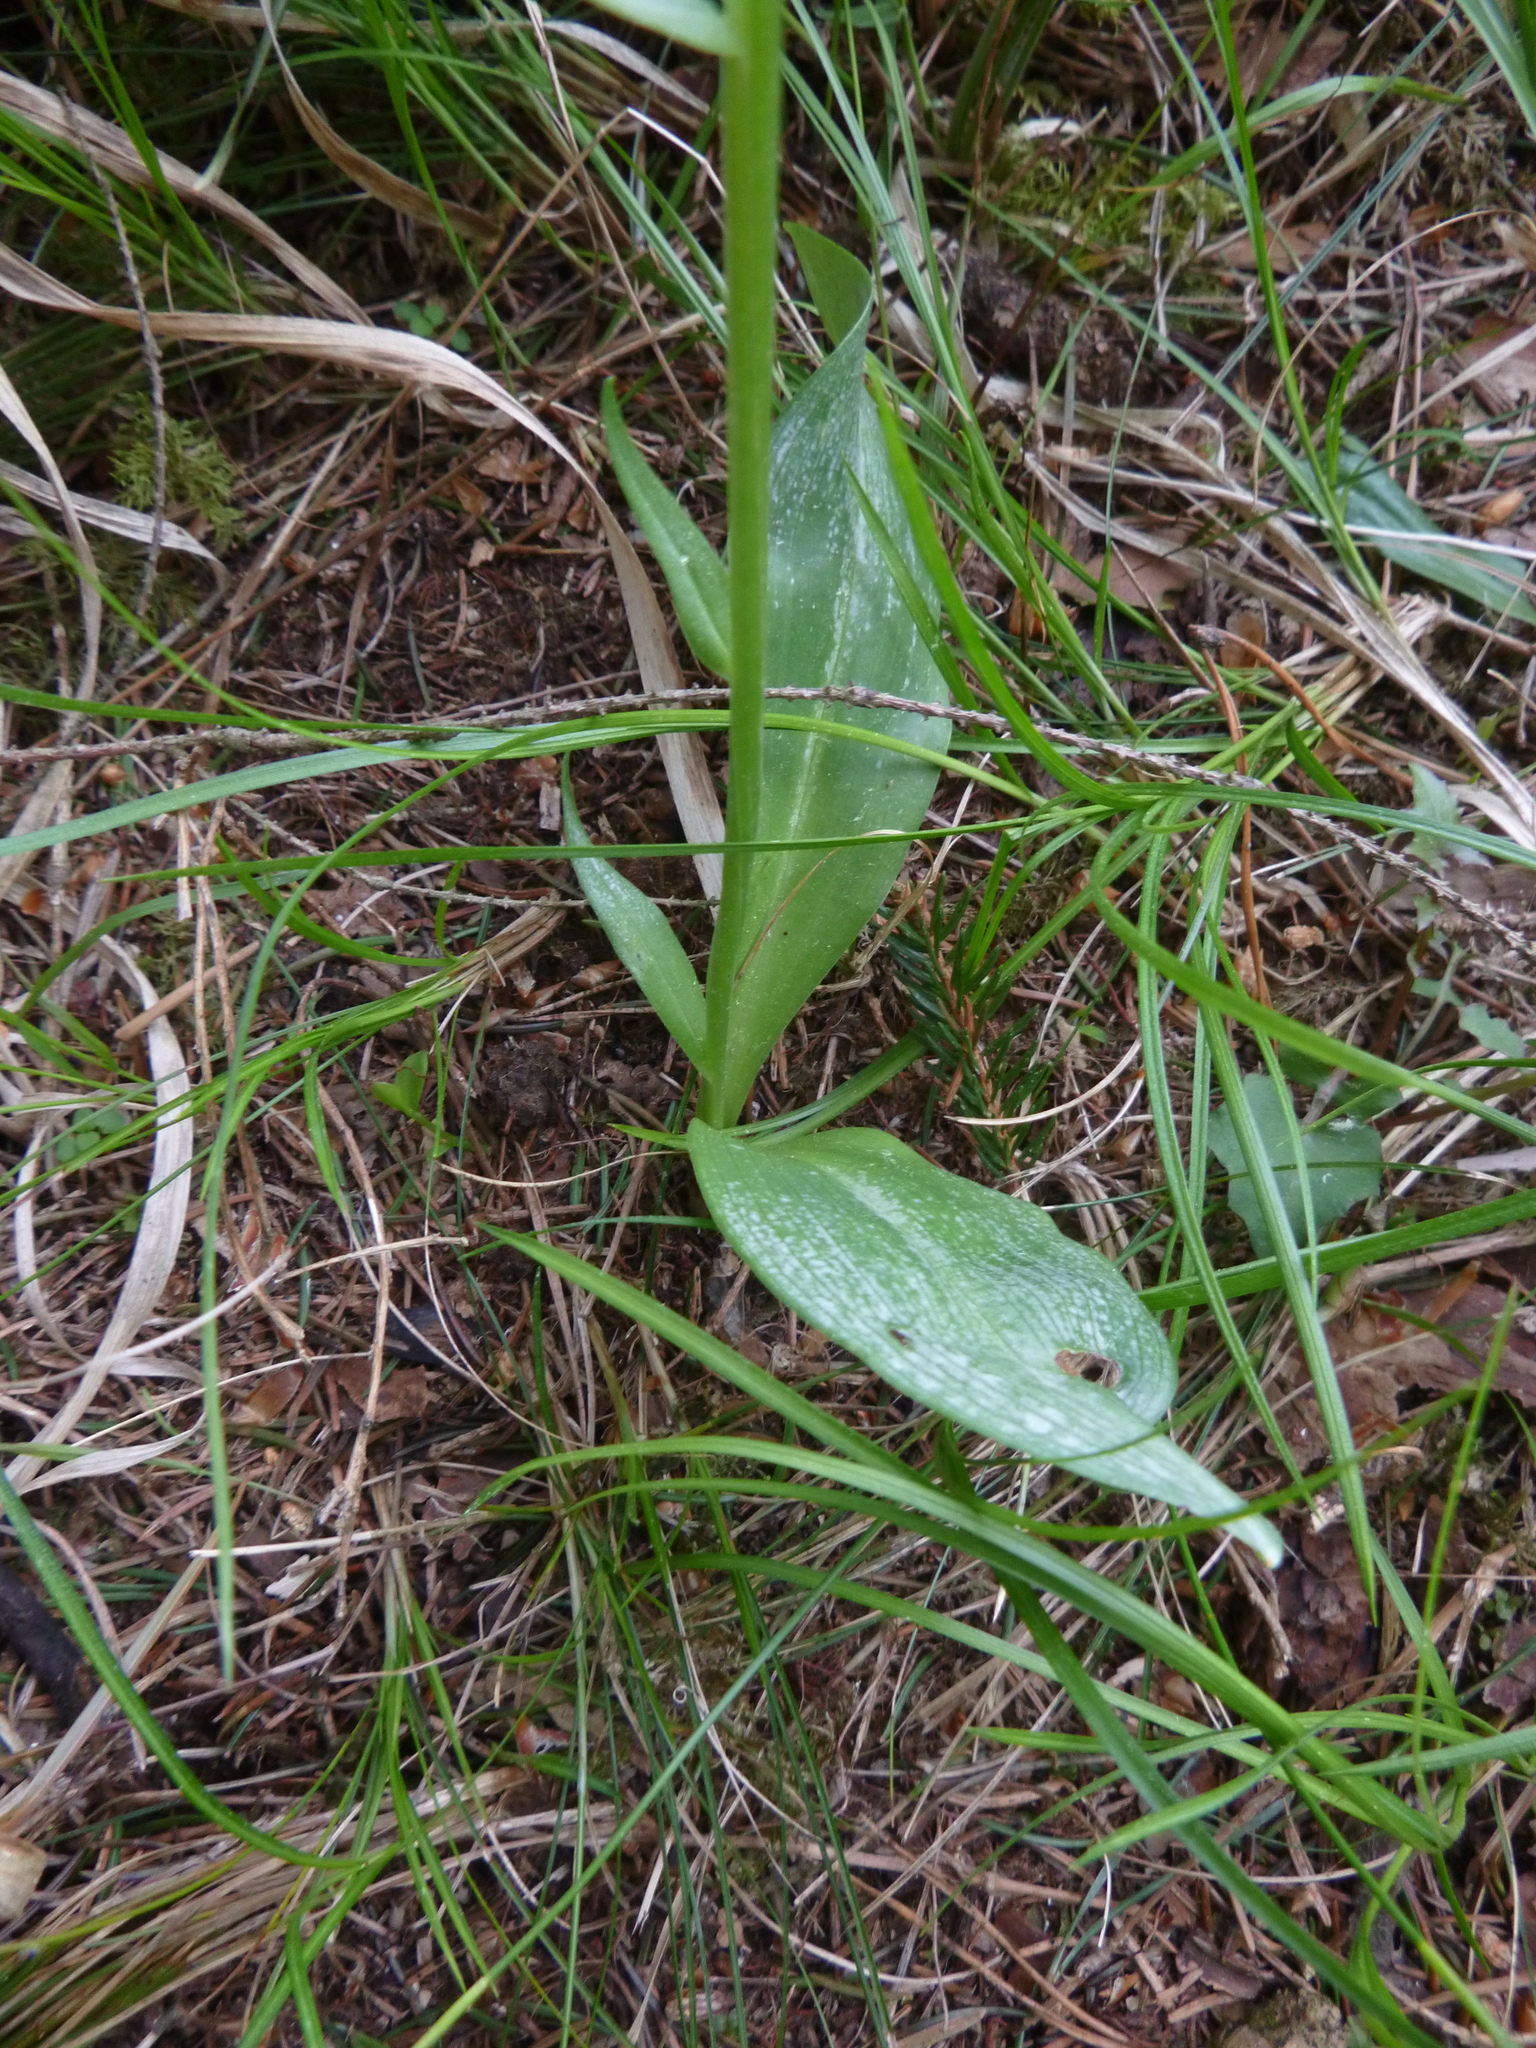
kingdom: Plantae
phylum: Tracheophyta
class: Liliopsida
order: Asparagales
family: Orchidaceae
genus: Platanthera
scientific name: Platanthera chlorantha
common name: Greater butterfly-orchid
